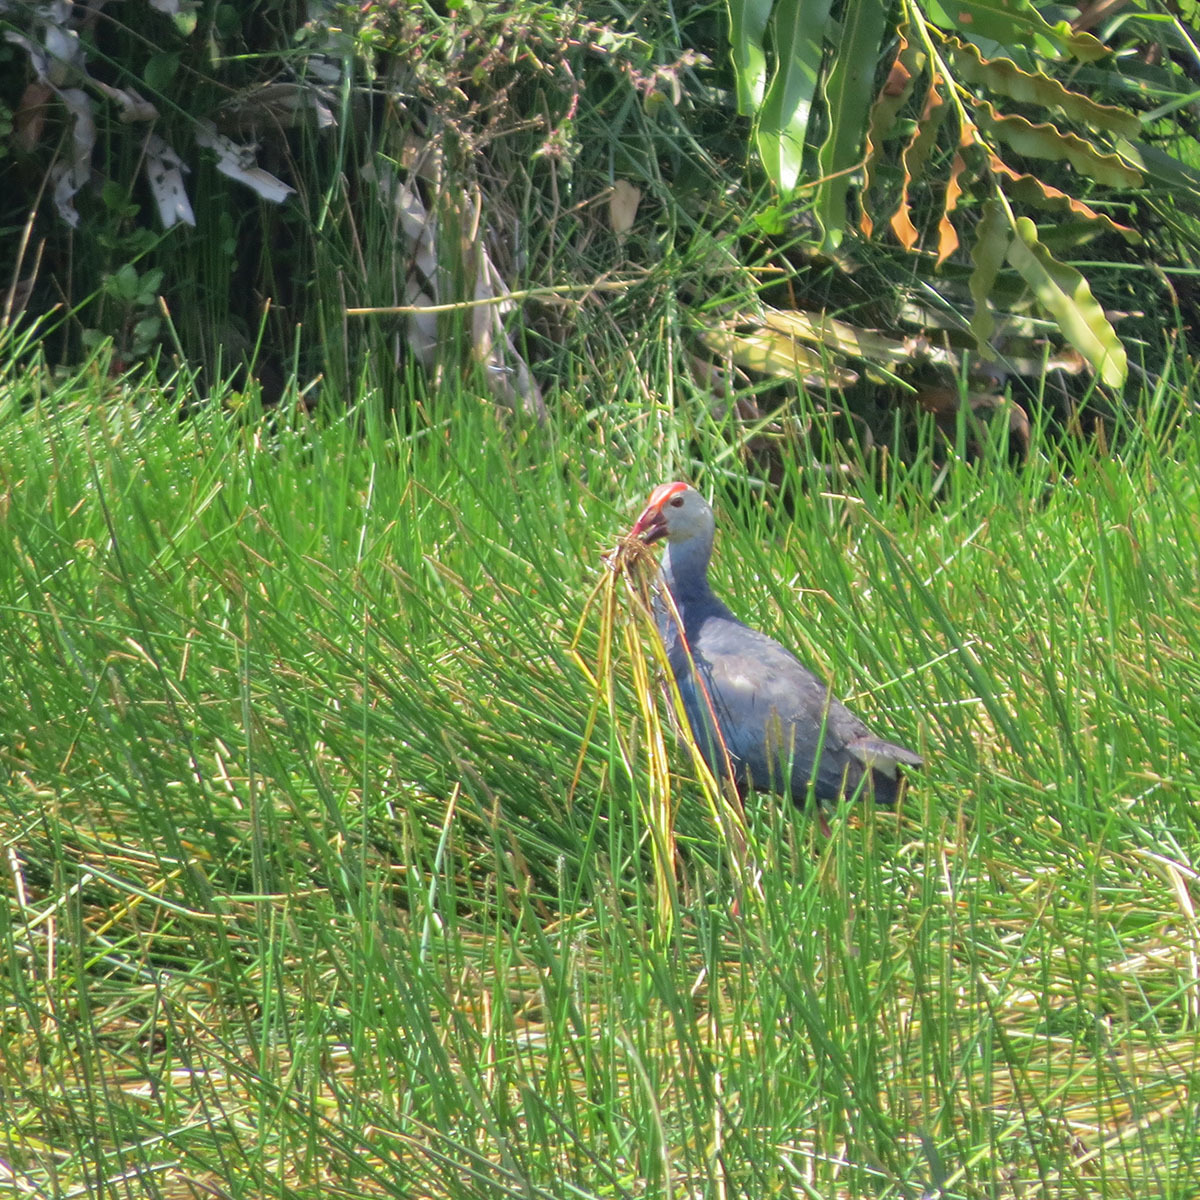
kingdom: Animalia
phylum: Chordata
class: Aves
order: Gruiformes
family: Rallidae
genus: Porphyrio
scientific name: Porphyrio porphyrio
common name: Purple swamphen
